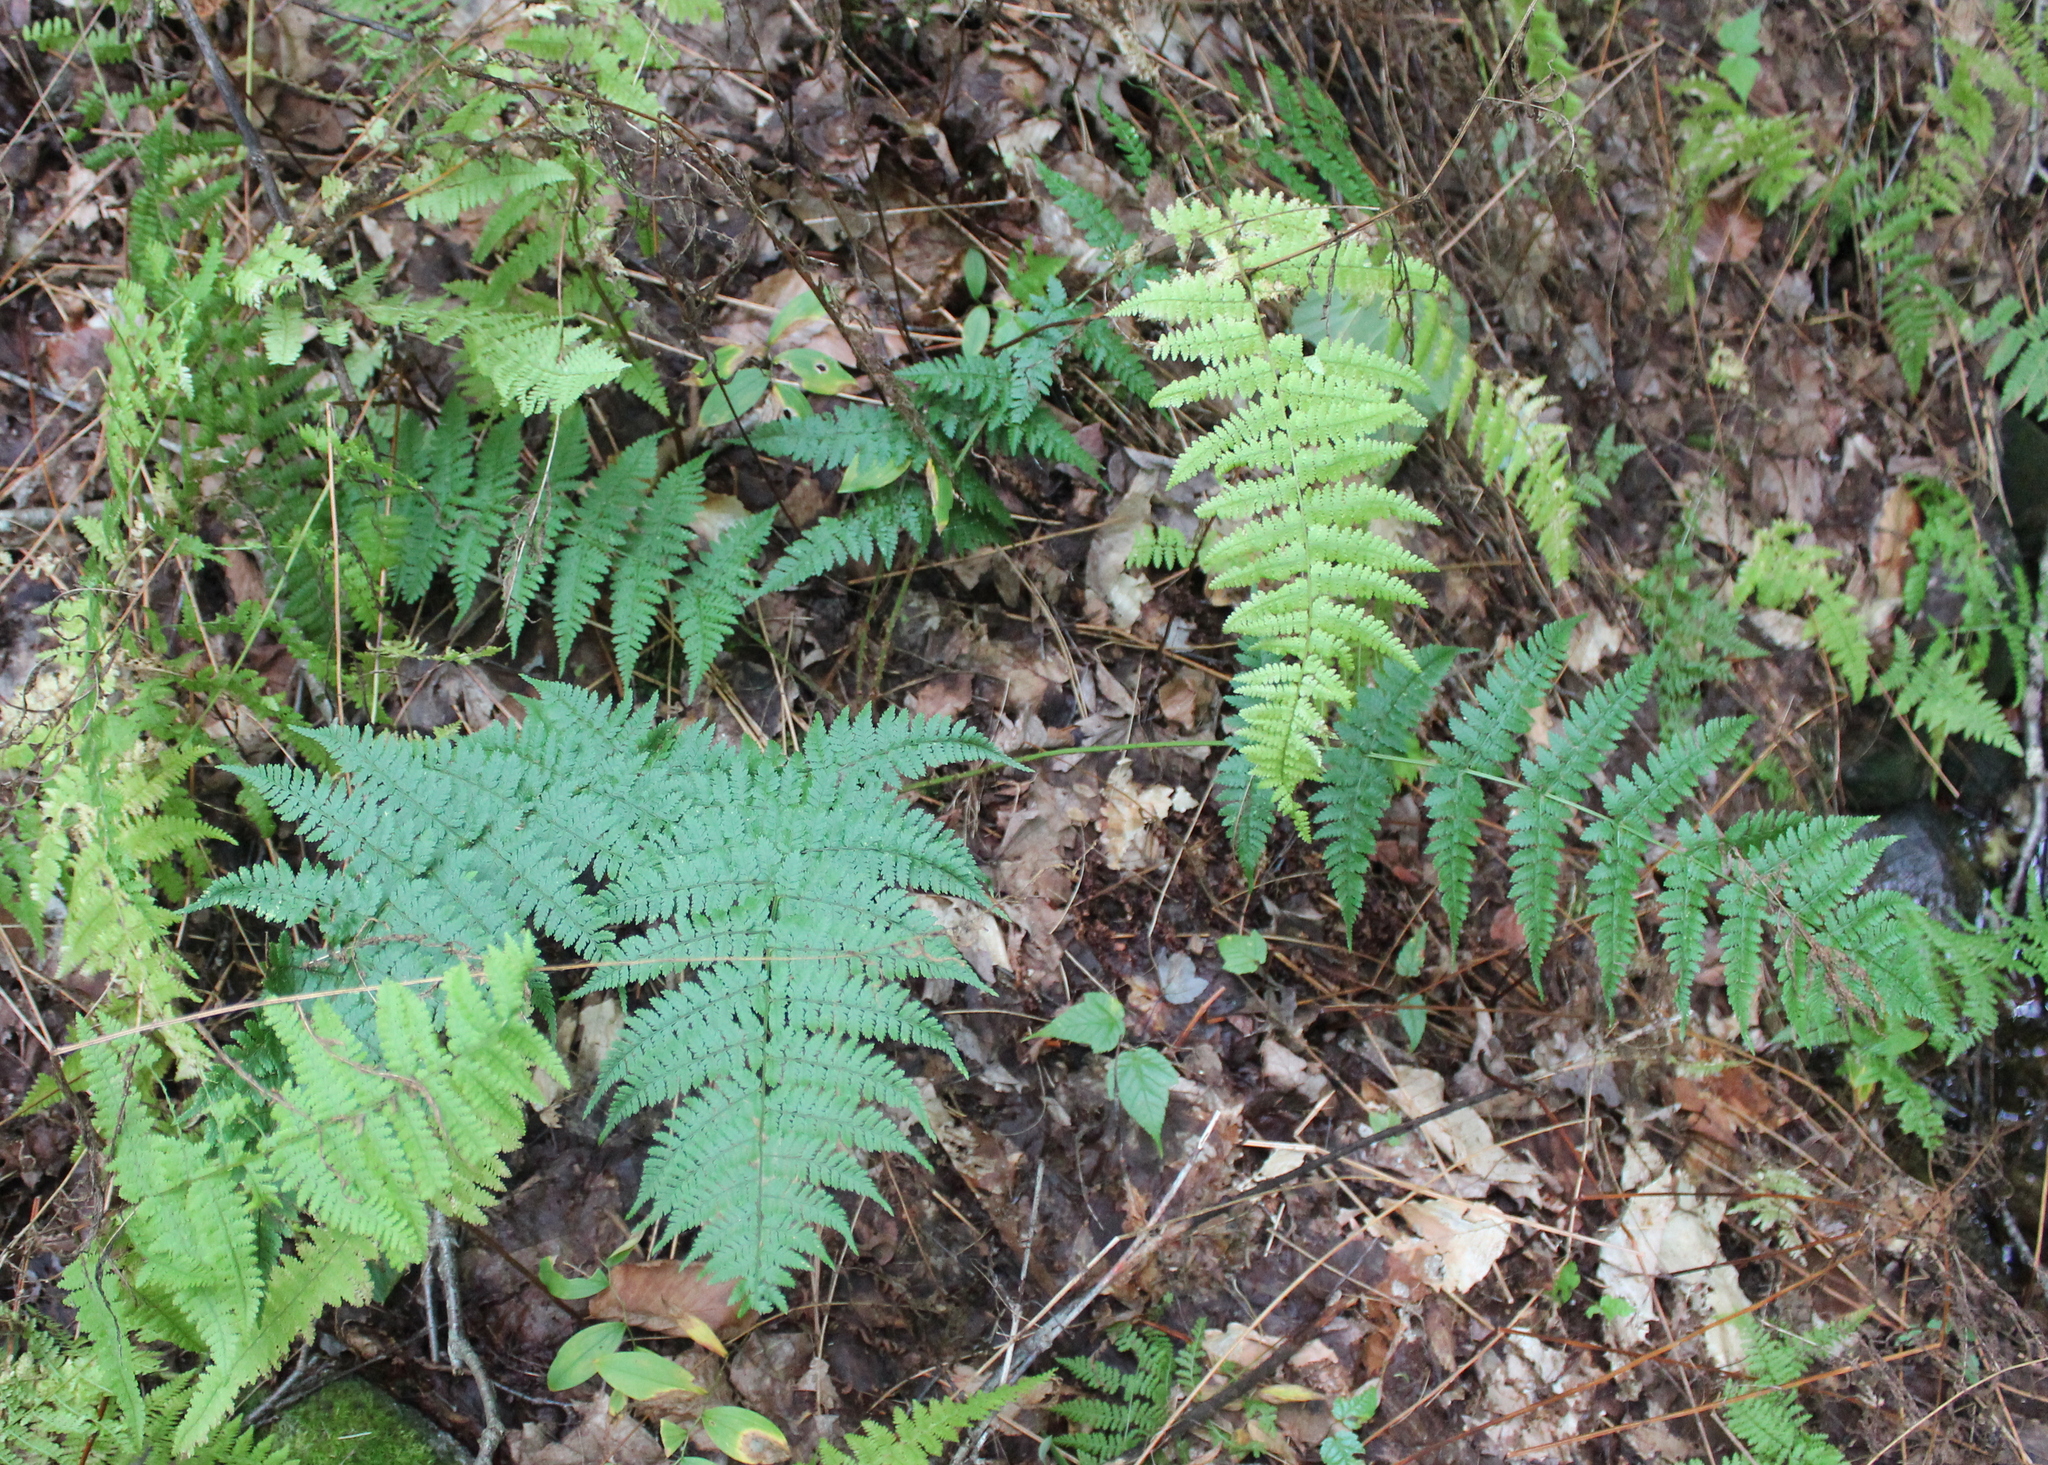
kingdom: Plantae
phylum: Tracheophyta
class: Polypodiopsida
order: Polypodiales
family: Dryopteridaceae
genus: Dryopteris
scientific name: Dryopteris intermedia
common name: Evergreen wood fern
